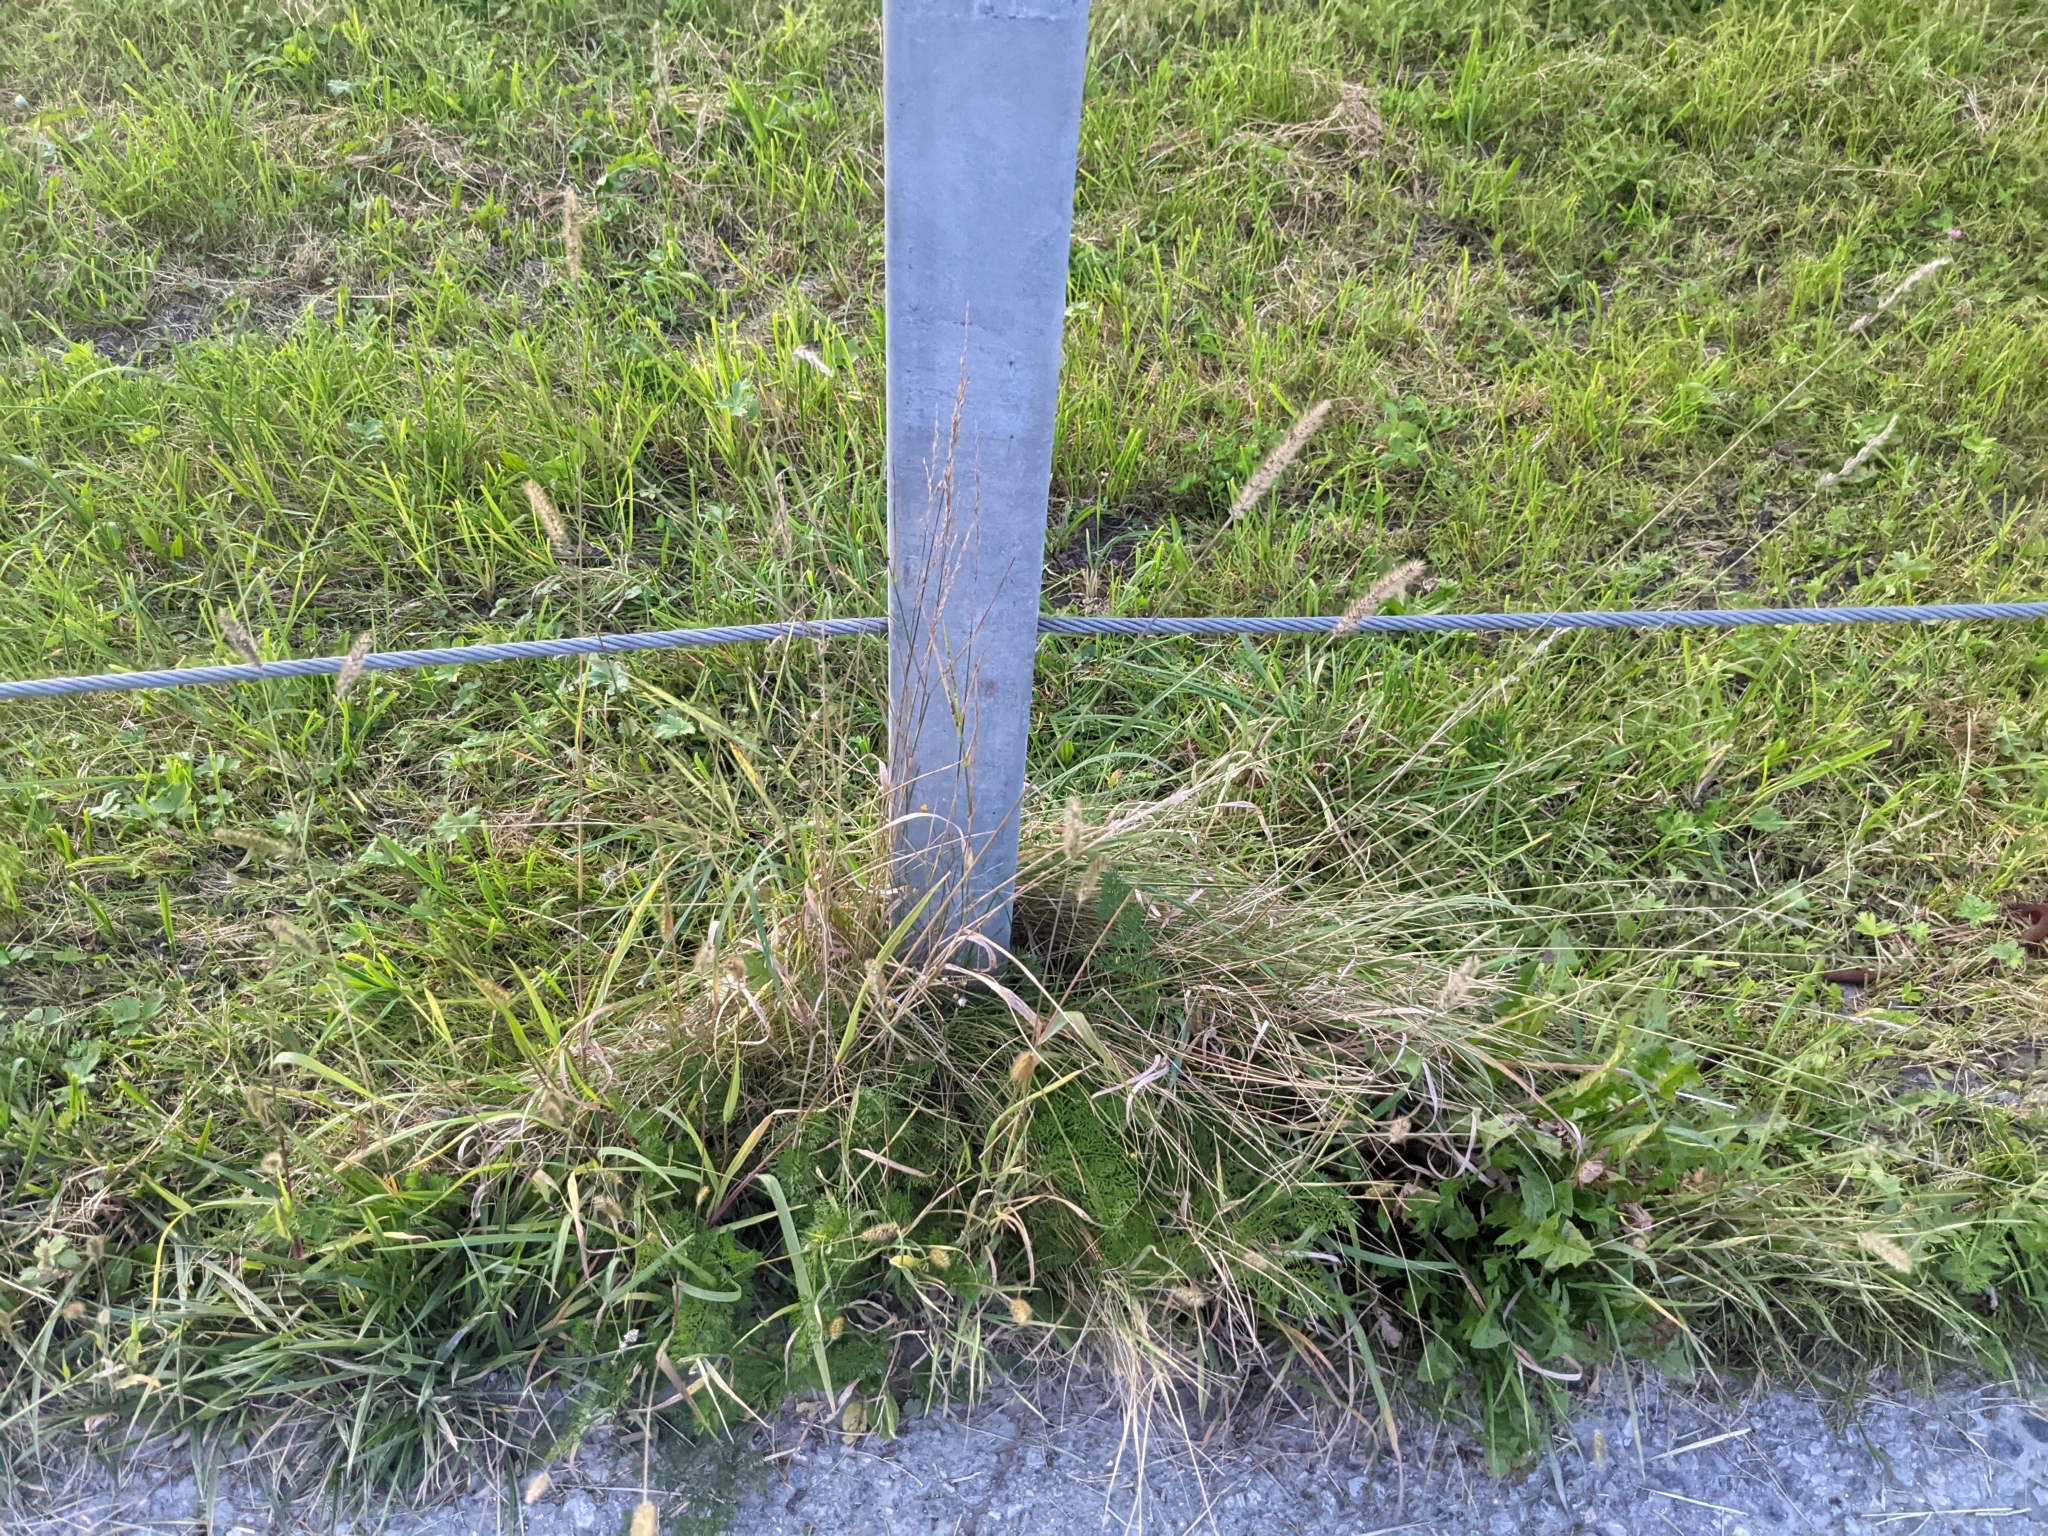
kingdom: Plantae
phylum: Tracheophyta
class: Liliopsida
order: Poales
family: Poaceae
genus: Setaria
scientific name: Setaria pumila
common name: Yellow bristle-grass
